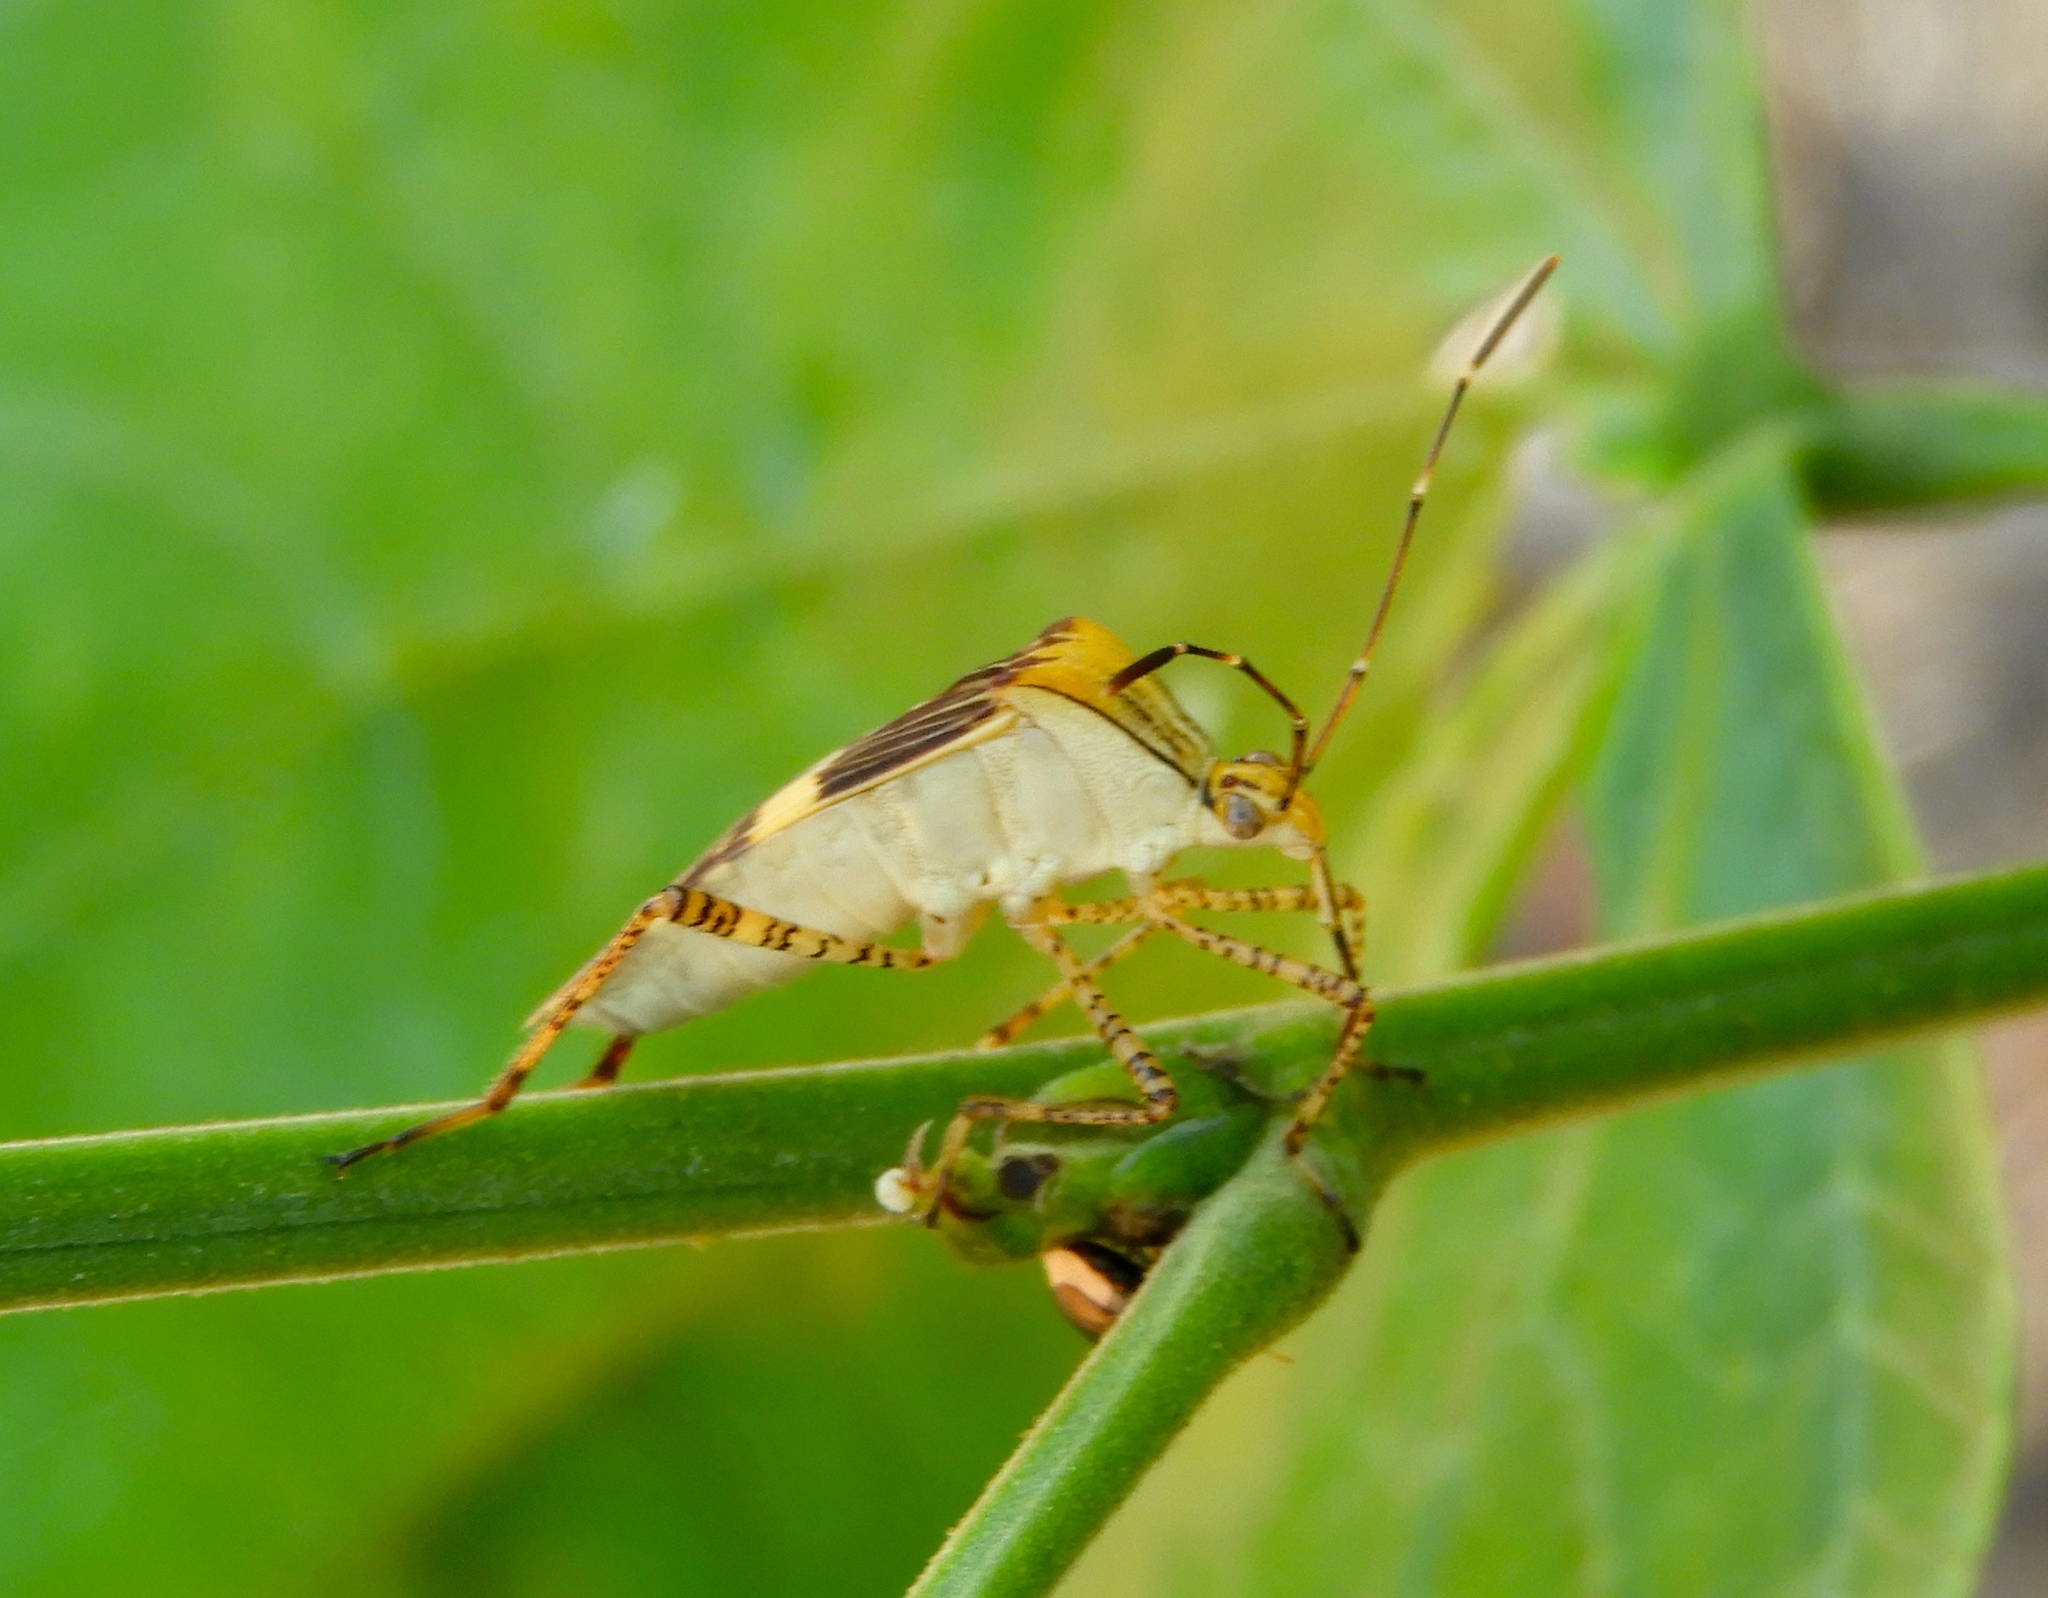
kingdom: Animalia
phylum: Arthropoda
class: Insecta
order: Hemiptera
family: Coreidae
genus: Hypselonotus
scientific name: Hypselonotus lineatus
